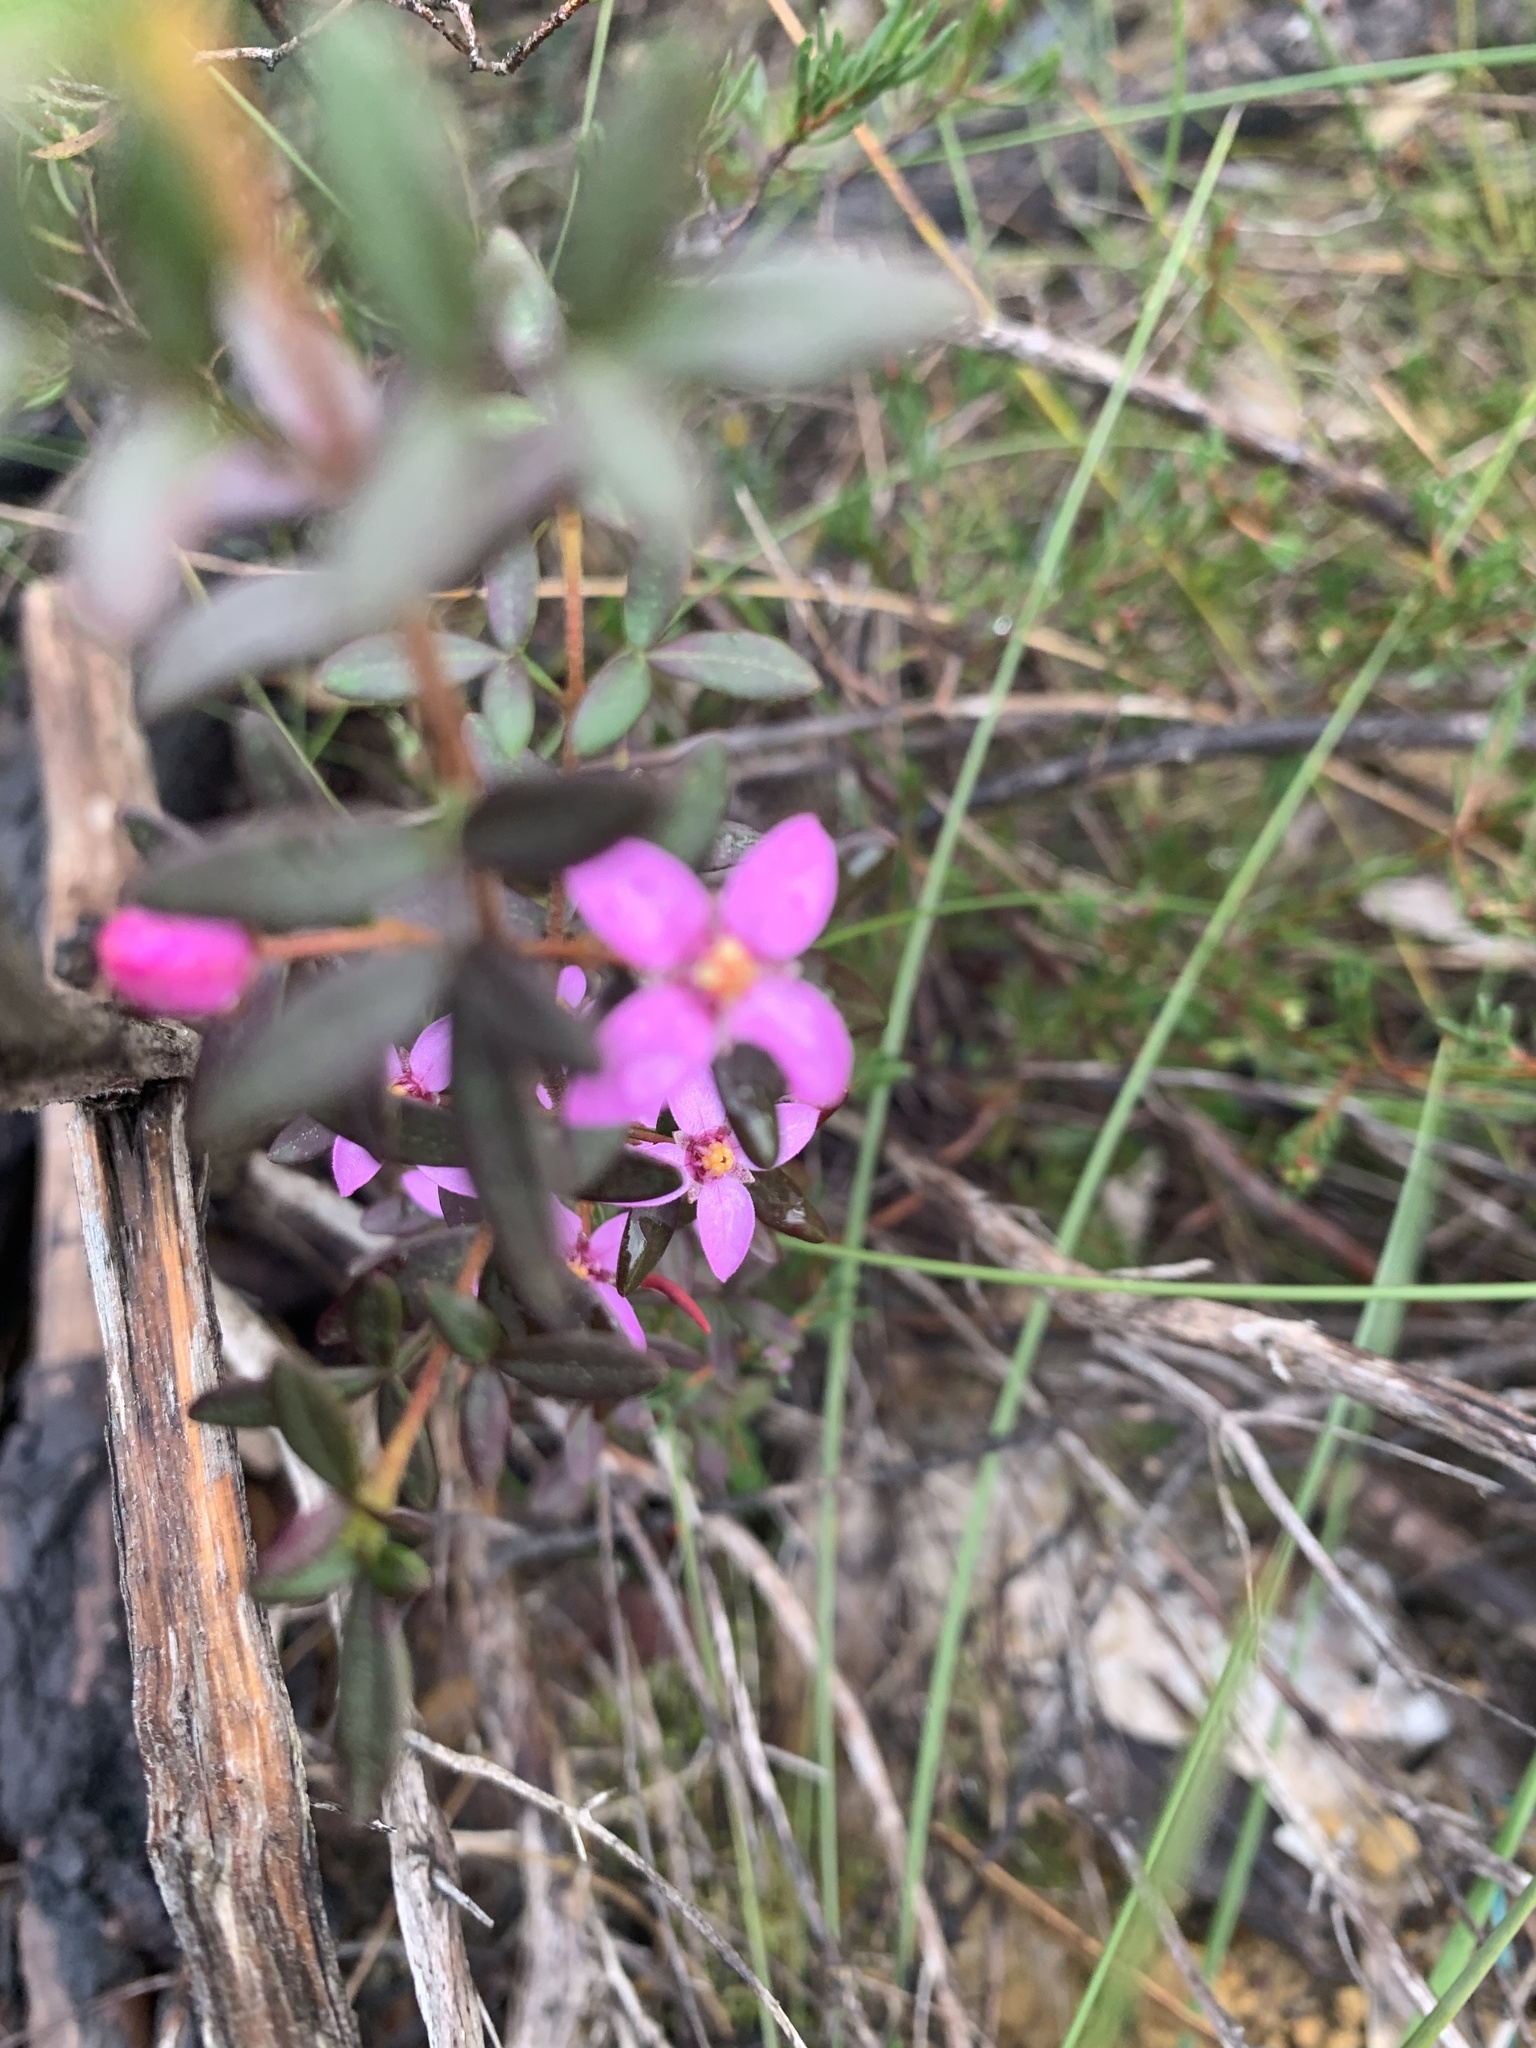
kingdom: Plantae
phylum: Tracheophyta
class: Magnoliopsida
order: Sapindales
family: Rutaceae
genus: Boronia
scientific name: Boronia ledifolia
